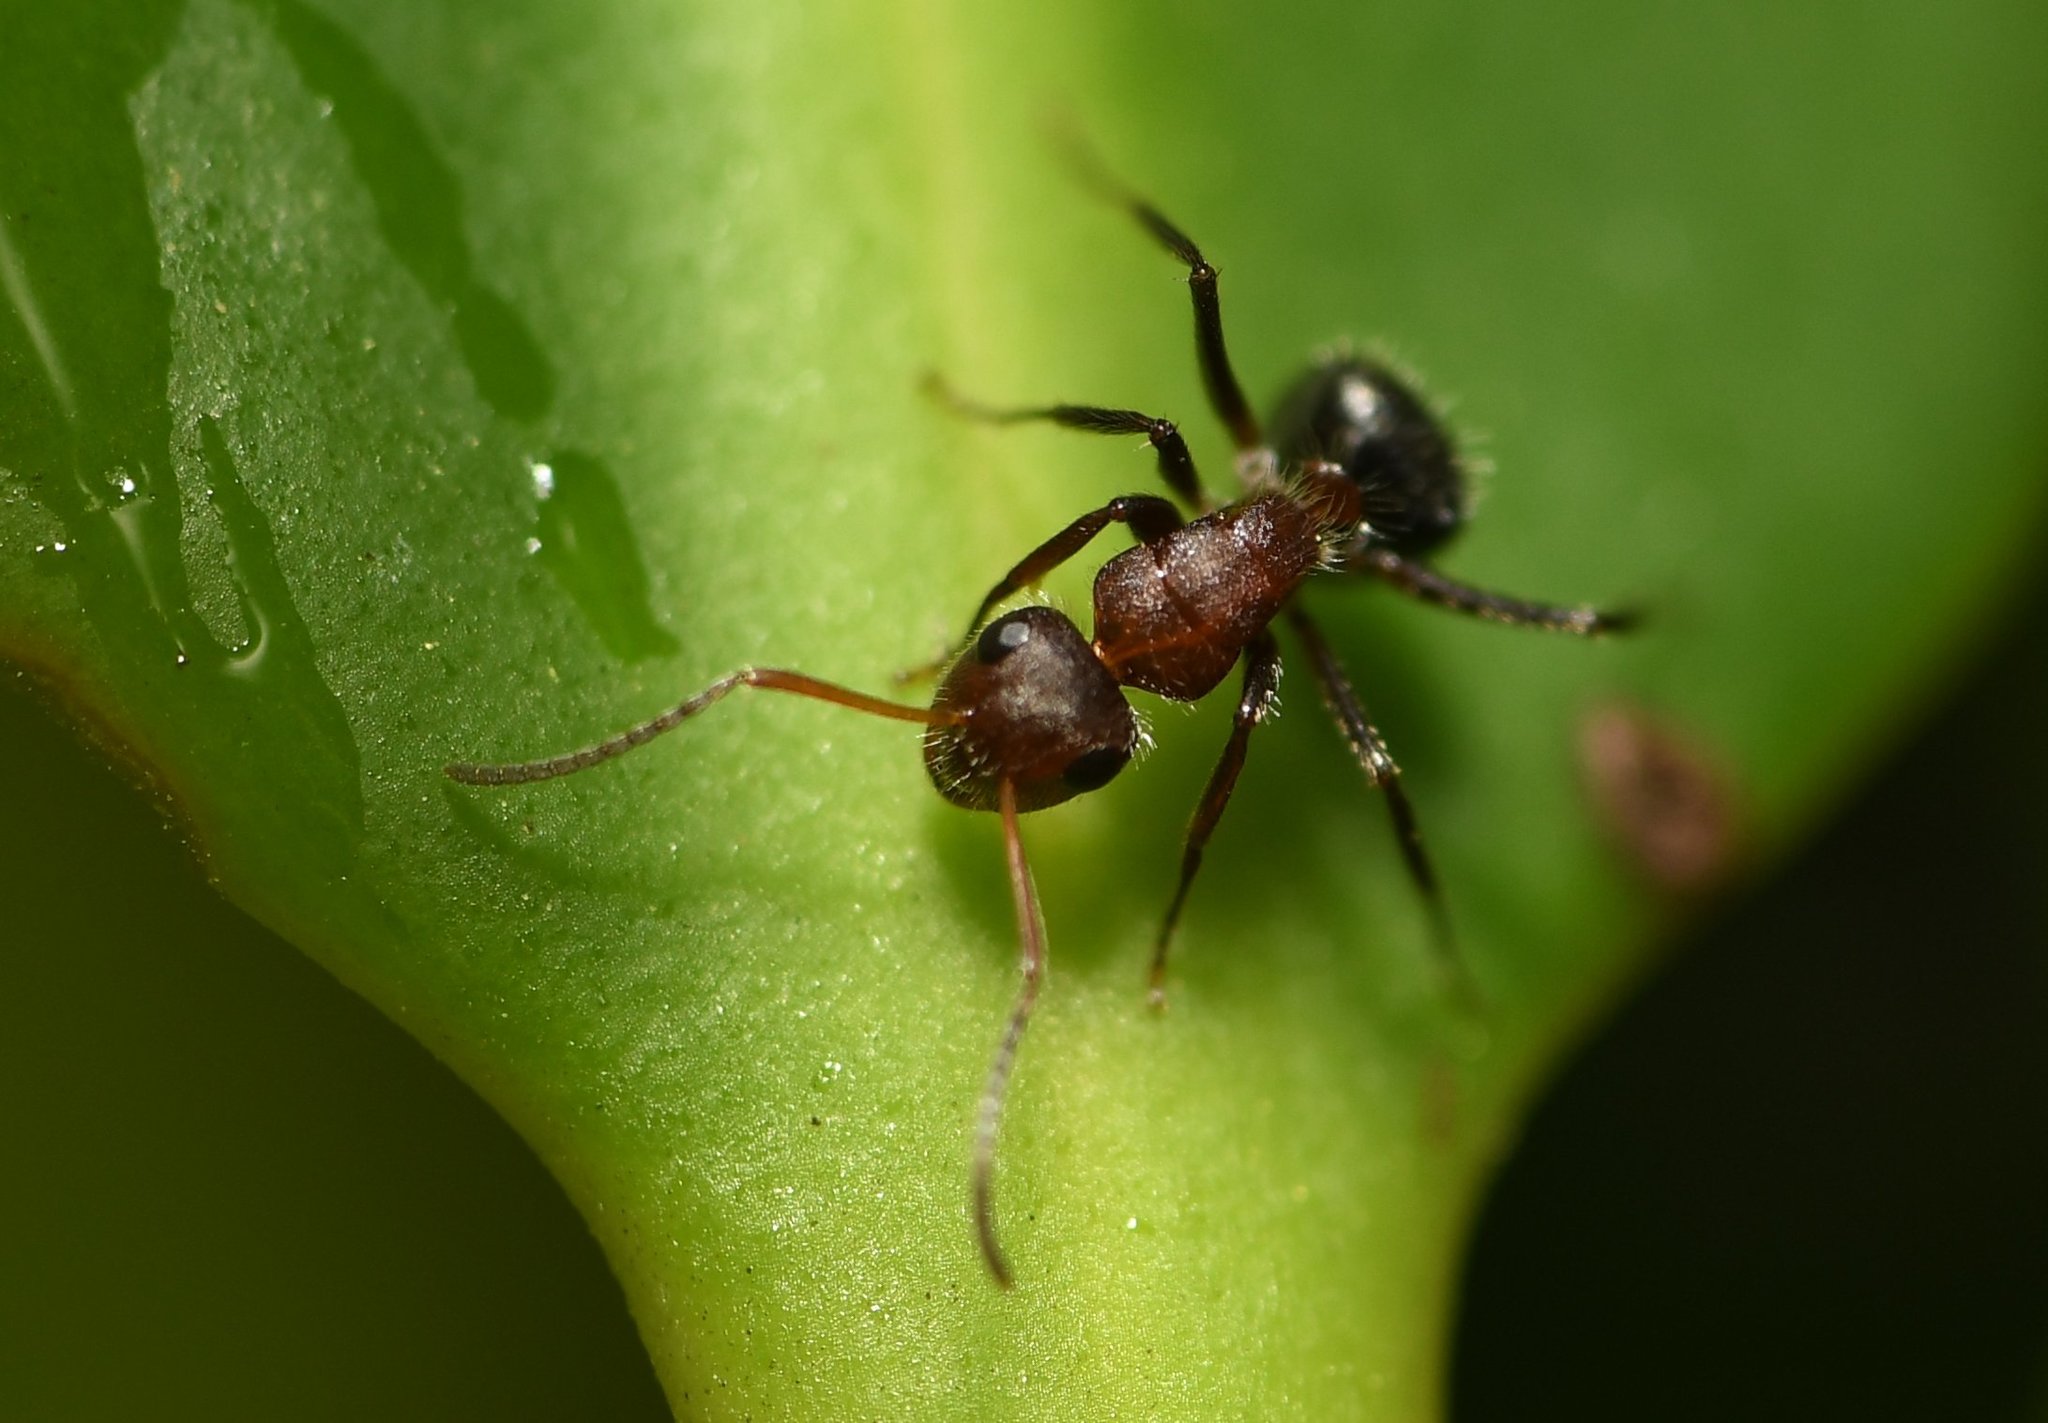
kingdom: Animalia
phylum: Arthropoda
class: Insecta
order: Hymenoptera
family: Formicidae
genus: Camponotus
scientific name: Camponotus planatus
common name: Compact carpenter ant
